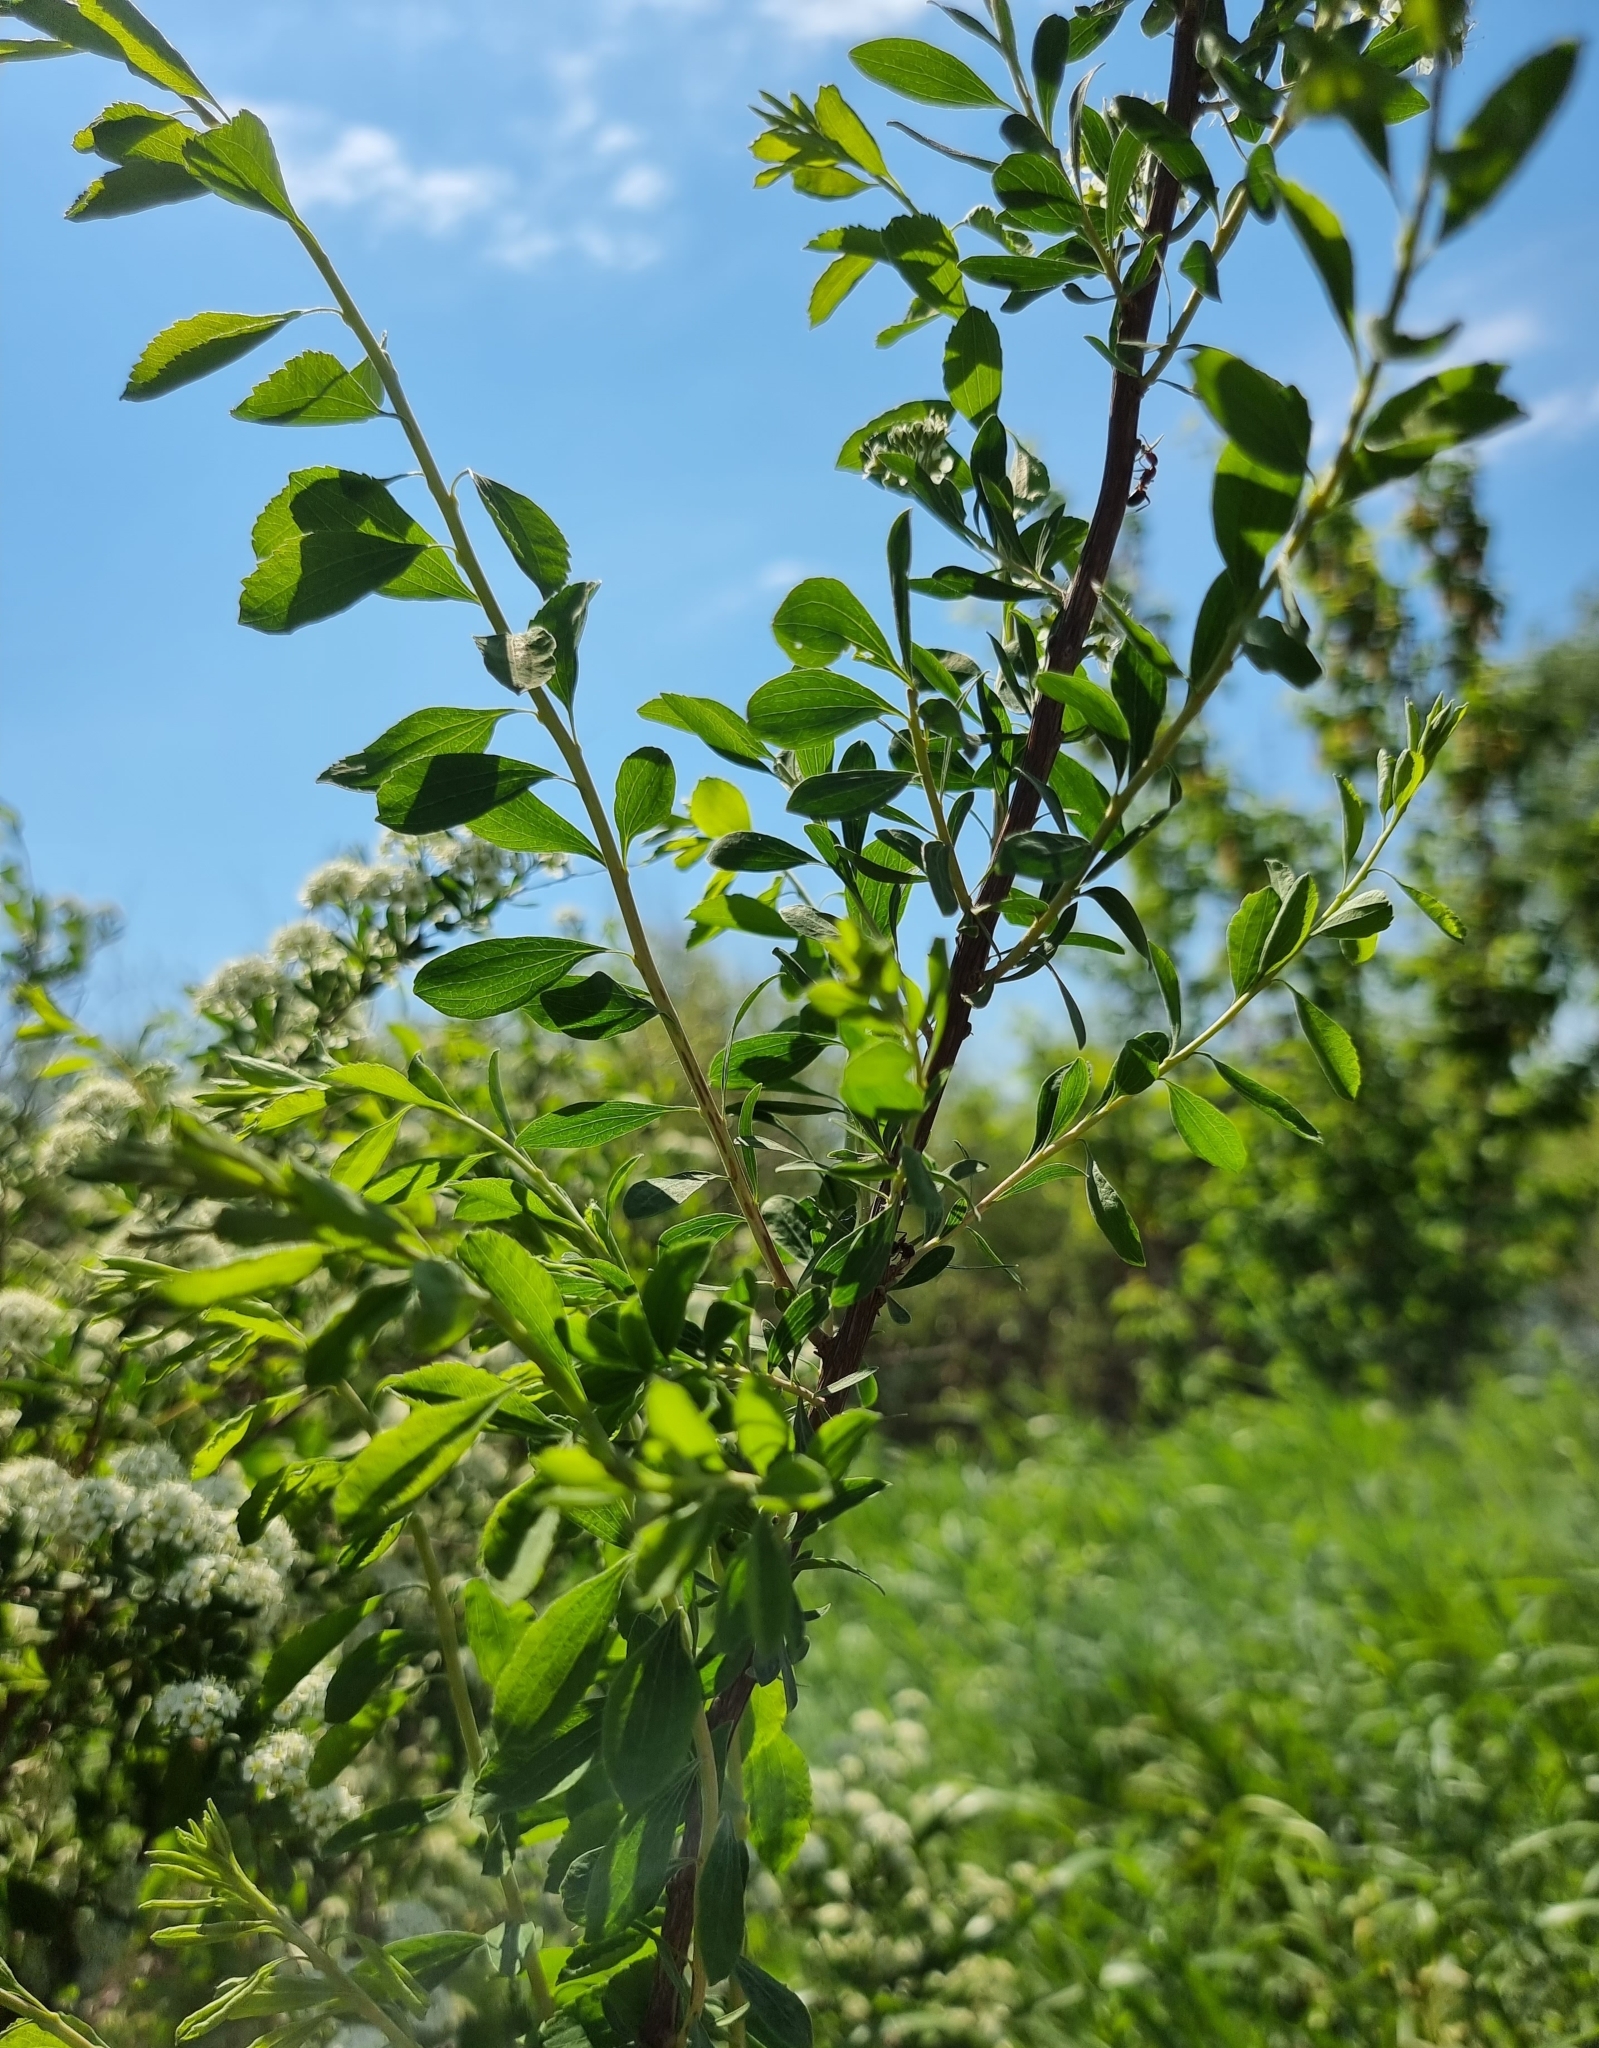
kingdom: Plantae
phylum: Tracheophyta
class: Magnoliopsida
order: Rosales
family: Rosaceae
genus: Spiraea
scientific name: Spiraea crenata
